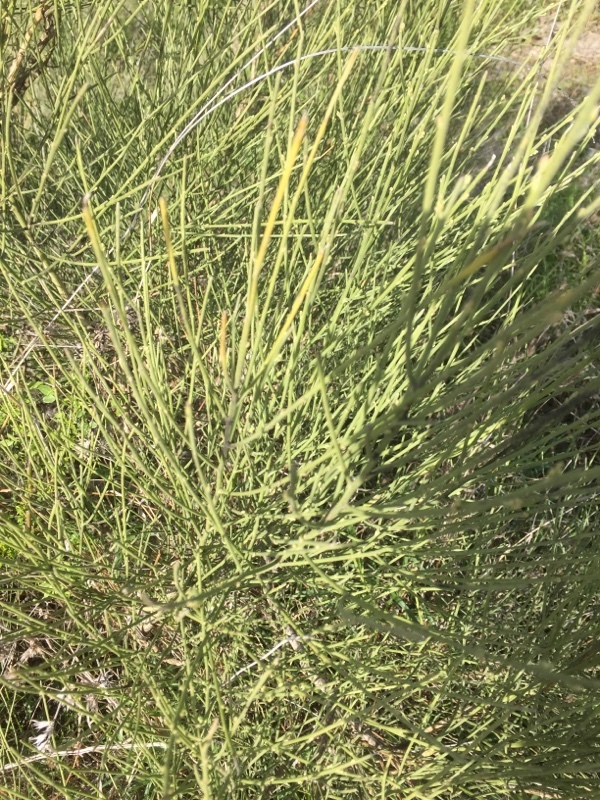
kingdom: Plantae
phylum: Tracheophyta
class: Magnoliopsida
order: Fabales
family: Fabaceae
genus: Spartium
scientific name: Spartium junceum
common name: Spanish broom
